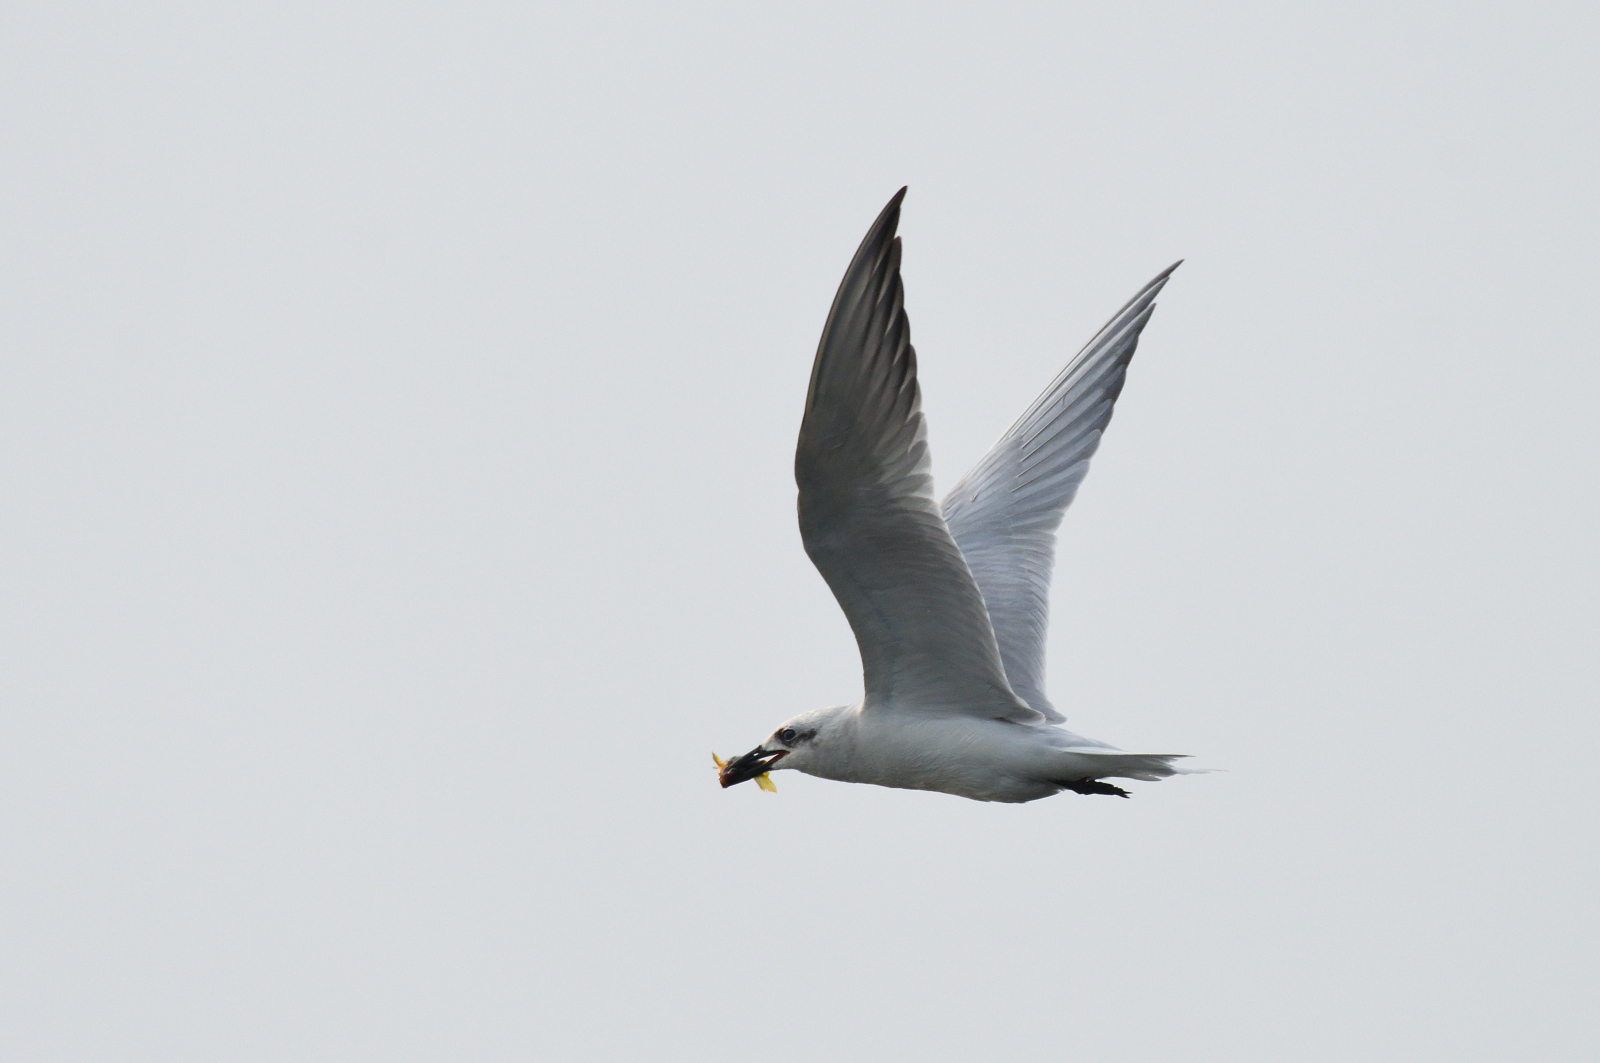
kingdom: Animalia
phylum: Chordata
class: Aves
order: Charadriiformes
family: Laridae
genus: Gelochelidon
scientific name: Gelochelidon nilotica
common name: Gull-billed tern
